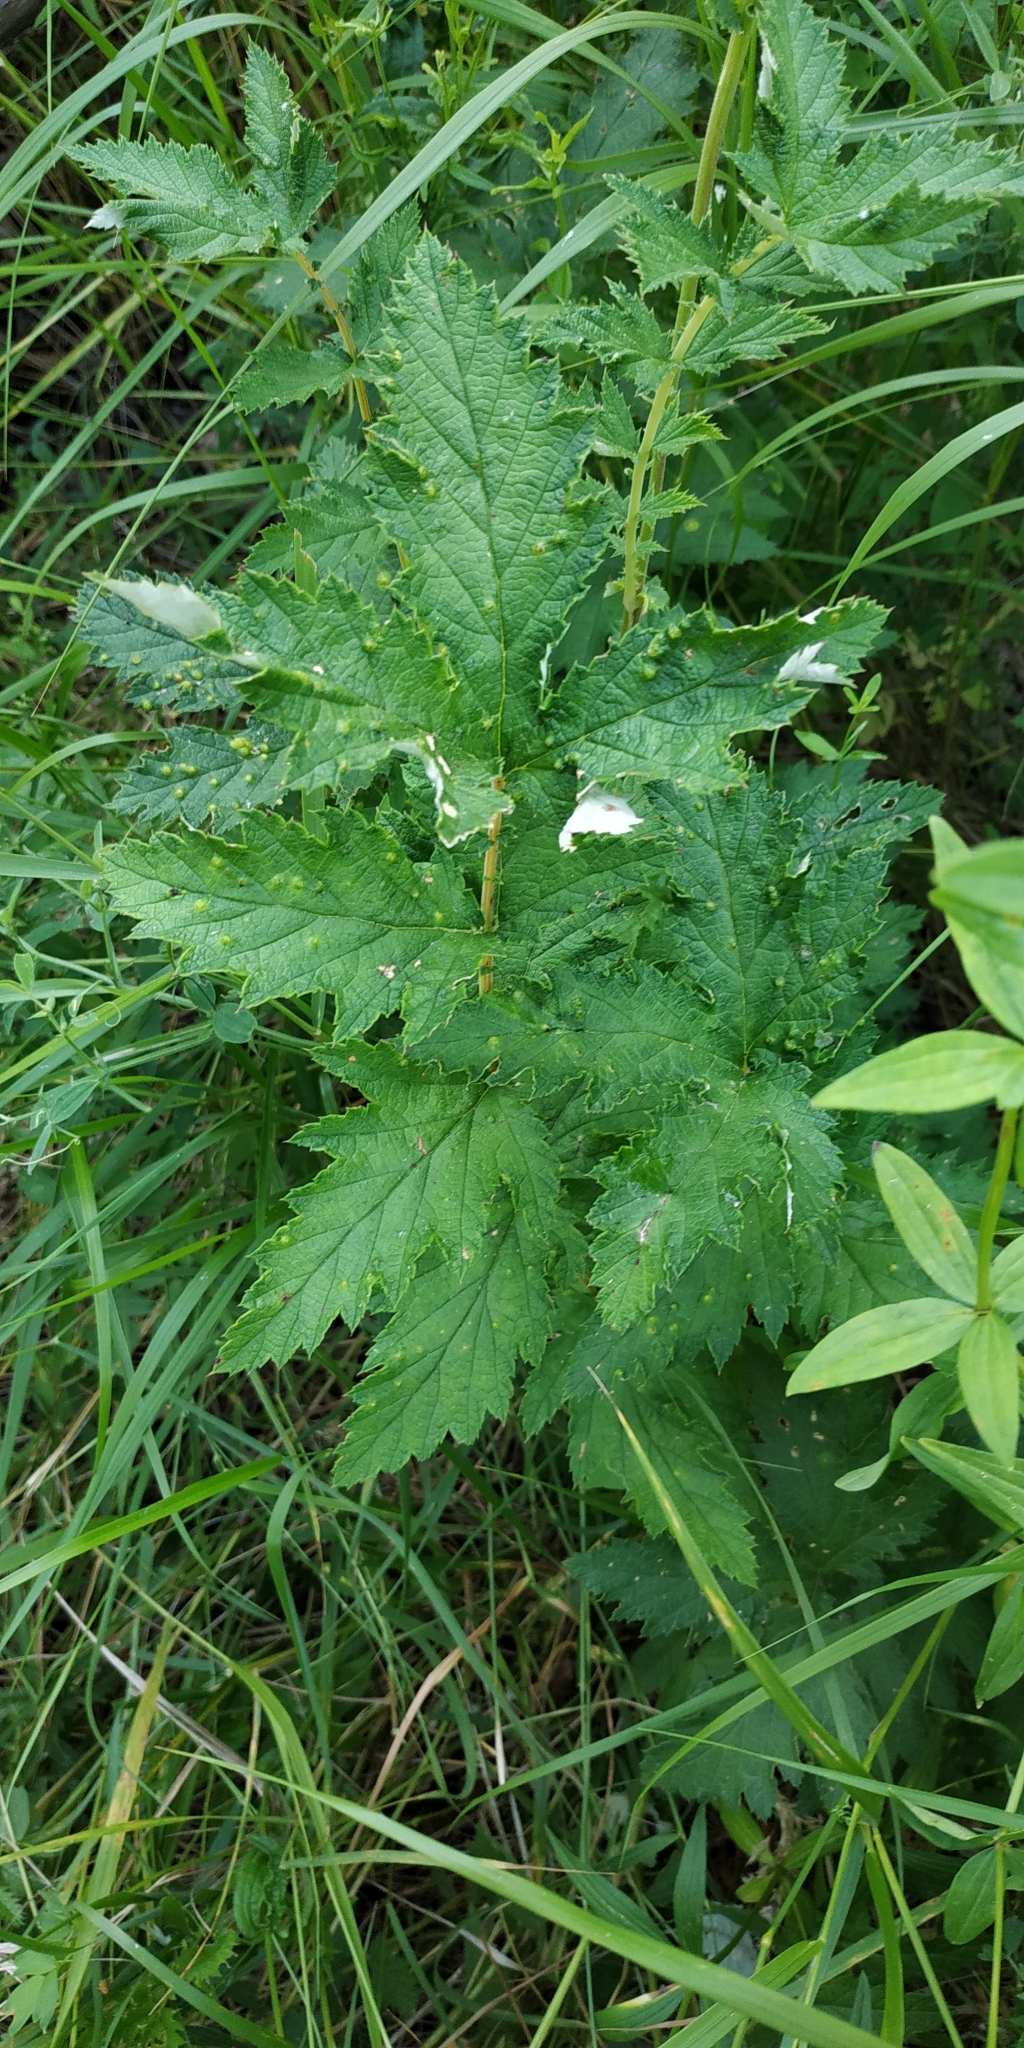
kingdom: Plantae
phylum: Tracheophyta
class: Magnoliopsida
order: Rosales
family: Rosaceae
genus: Filipendula
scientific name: Filipendula ulmaria
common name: Meadowsweet
